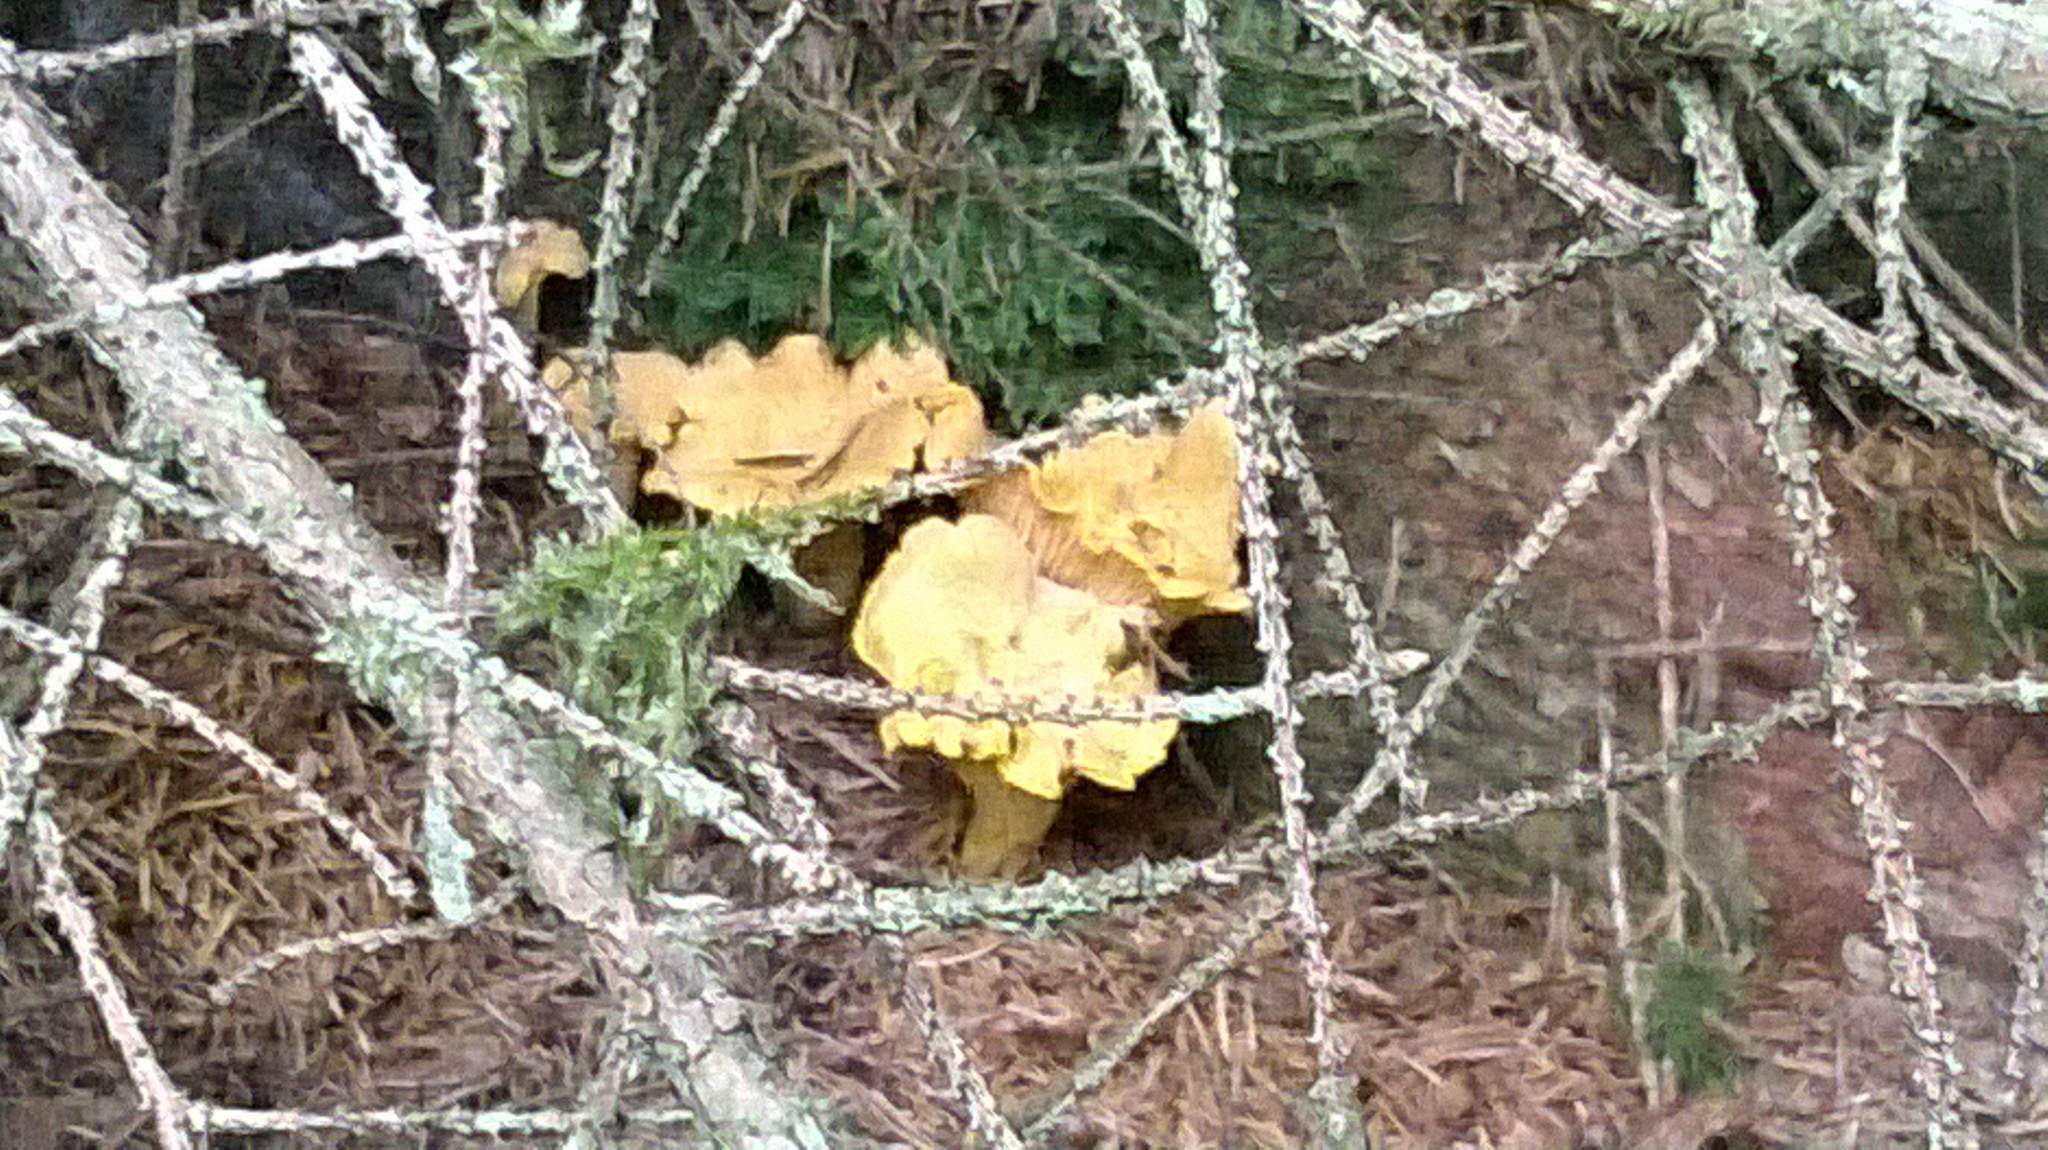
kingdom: Fungi
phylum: Basidiomycota
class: Agaricomycetes
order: Cantharellales
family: Hydnaceae
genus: Cantharellus
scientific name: Cantharellus cibarius
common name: Chanterelle
